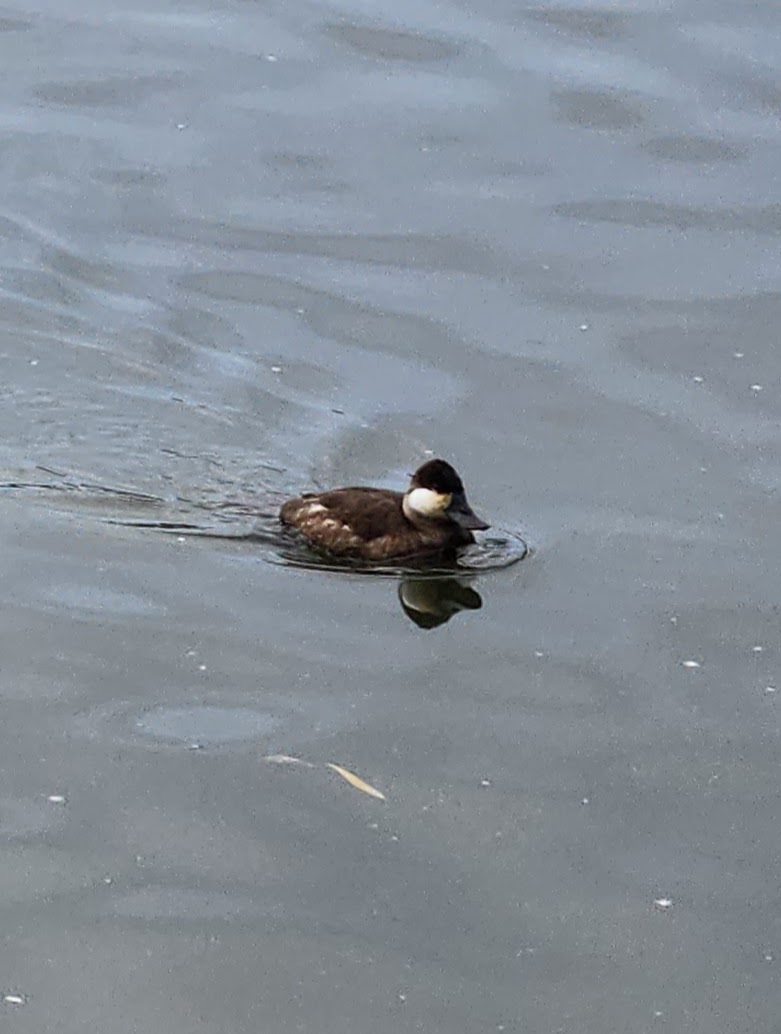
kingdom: Animalia
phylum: Chordata
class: Aves
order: Anseriformes
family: Anatidae
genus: Oxyura
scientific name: Oxyura jamaicensis
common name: Ruddy duck
